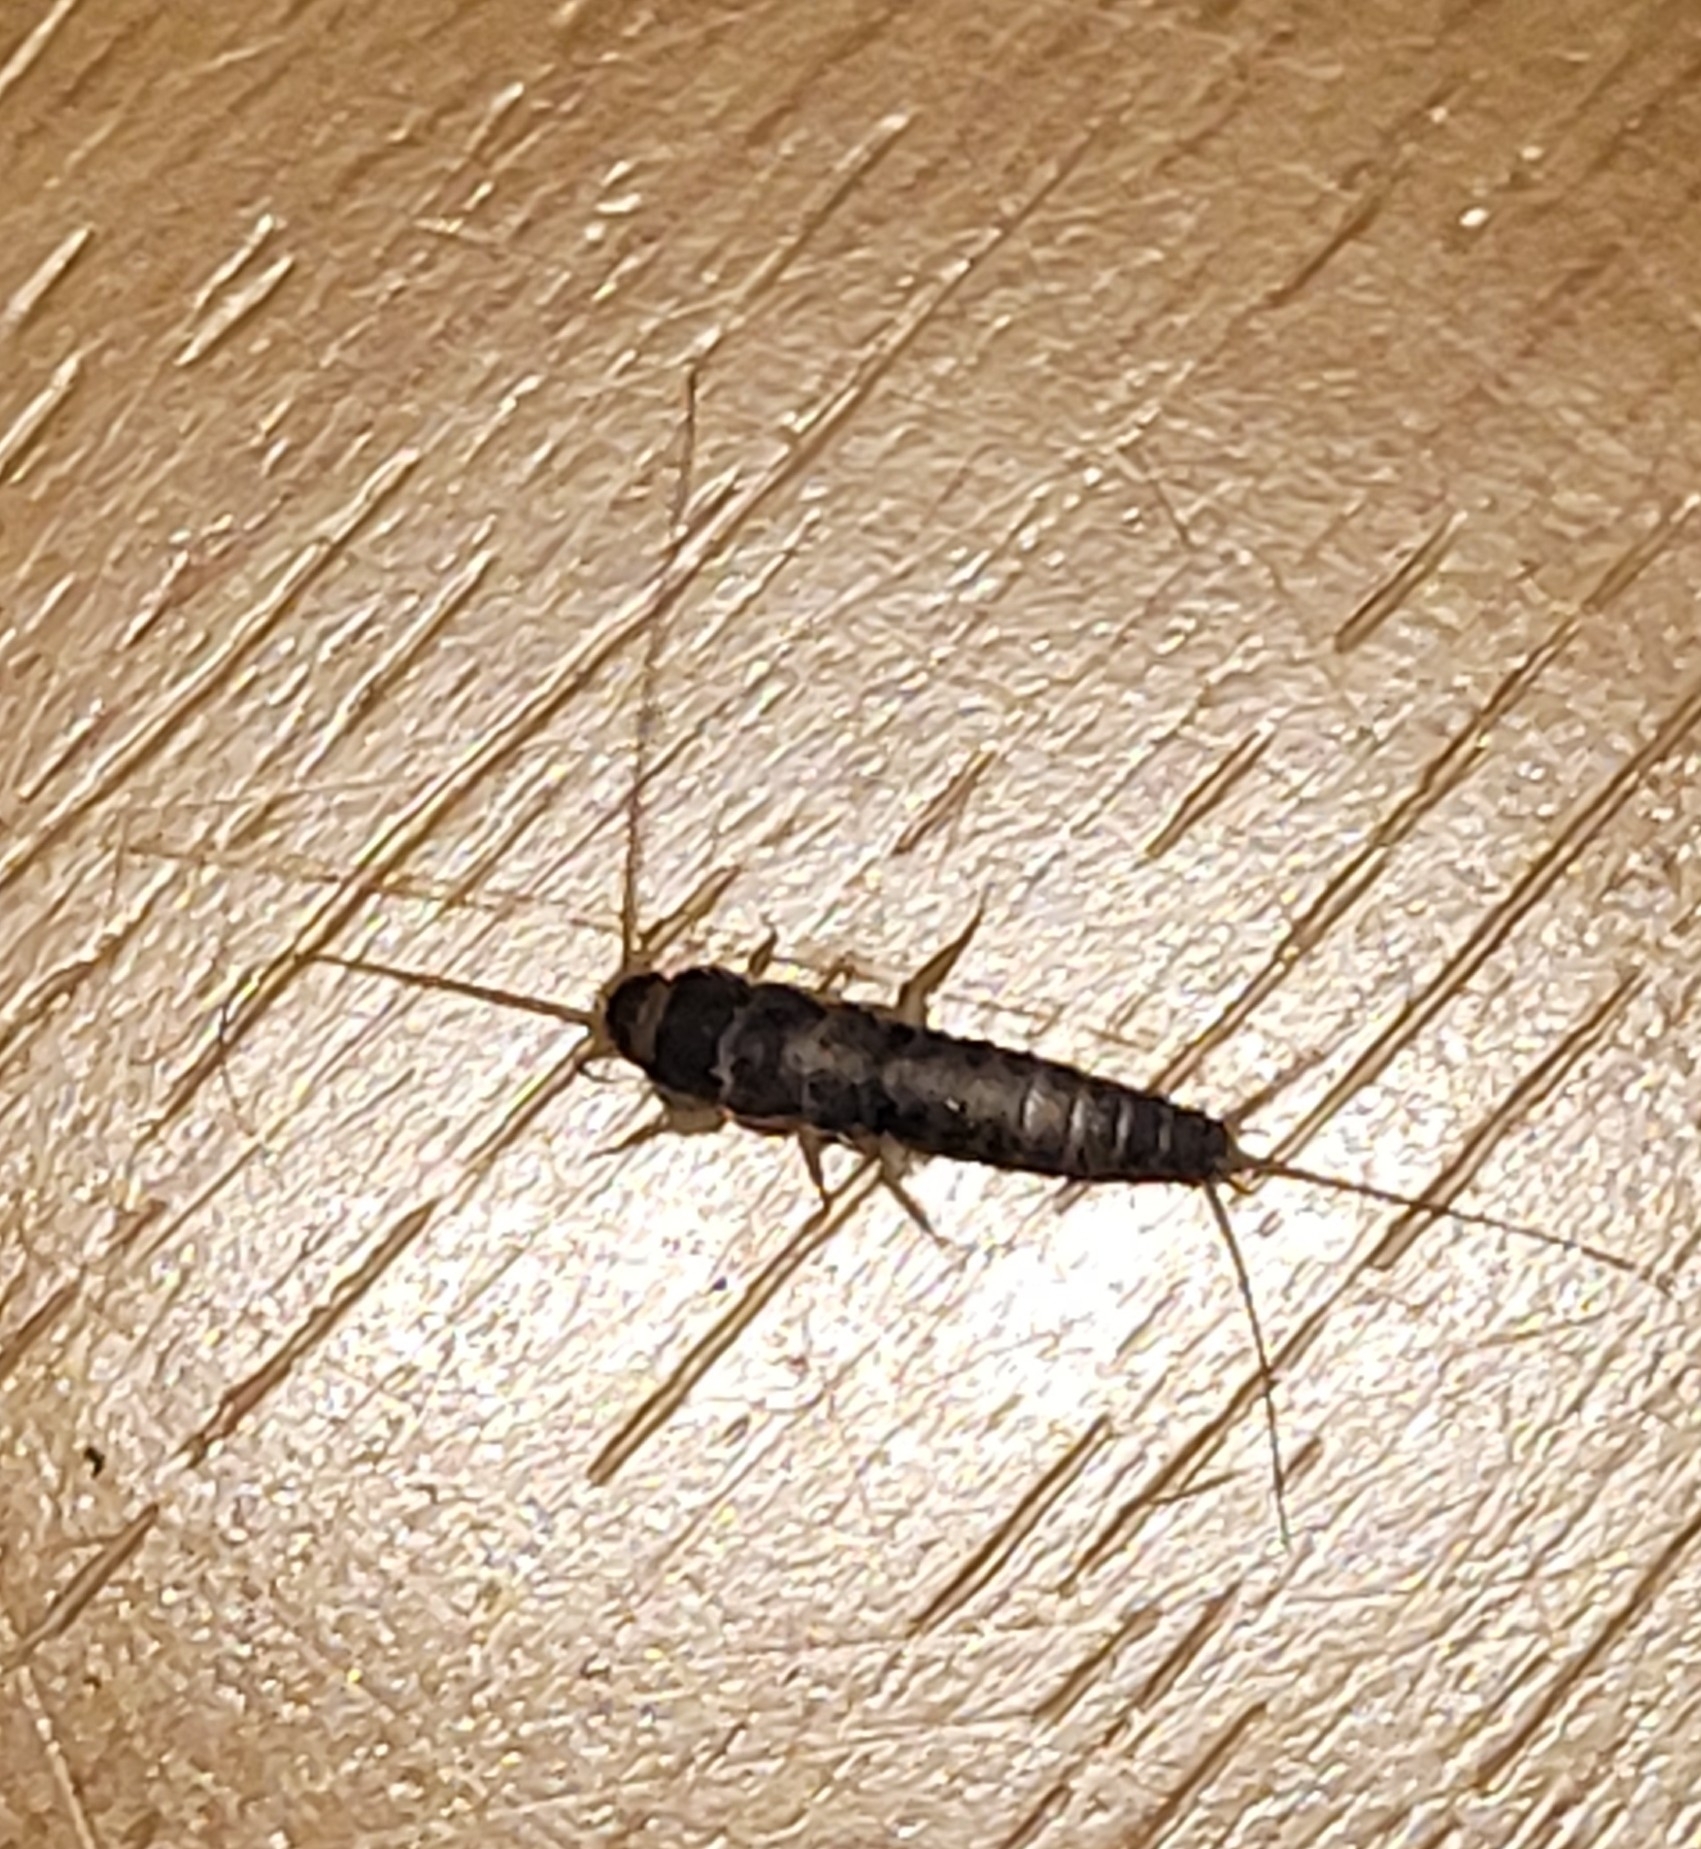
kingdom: Animalia
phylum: Arthropoda
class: Insecta
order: Zygentoma
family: Lepismatidae
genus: Ctenolepisma
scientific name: Ctenolepisma longicaudatum
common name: Silverfish
